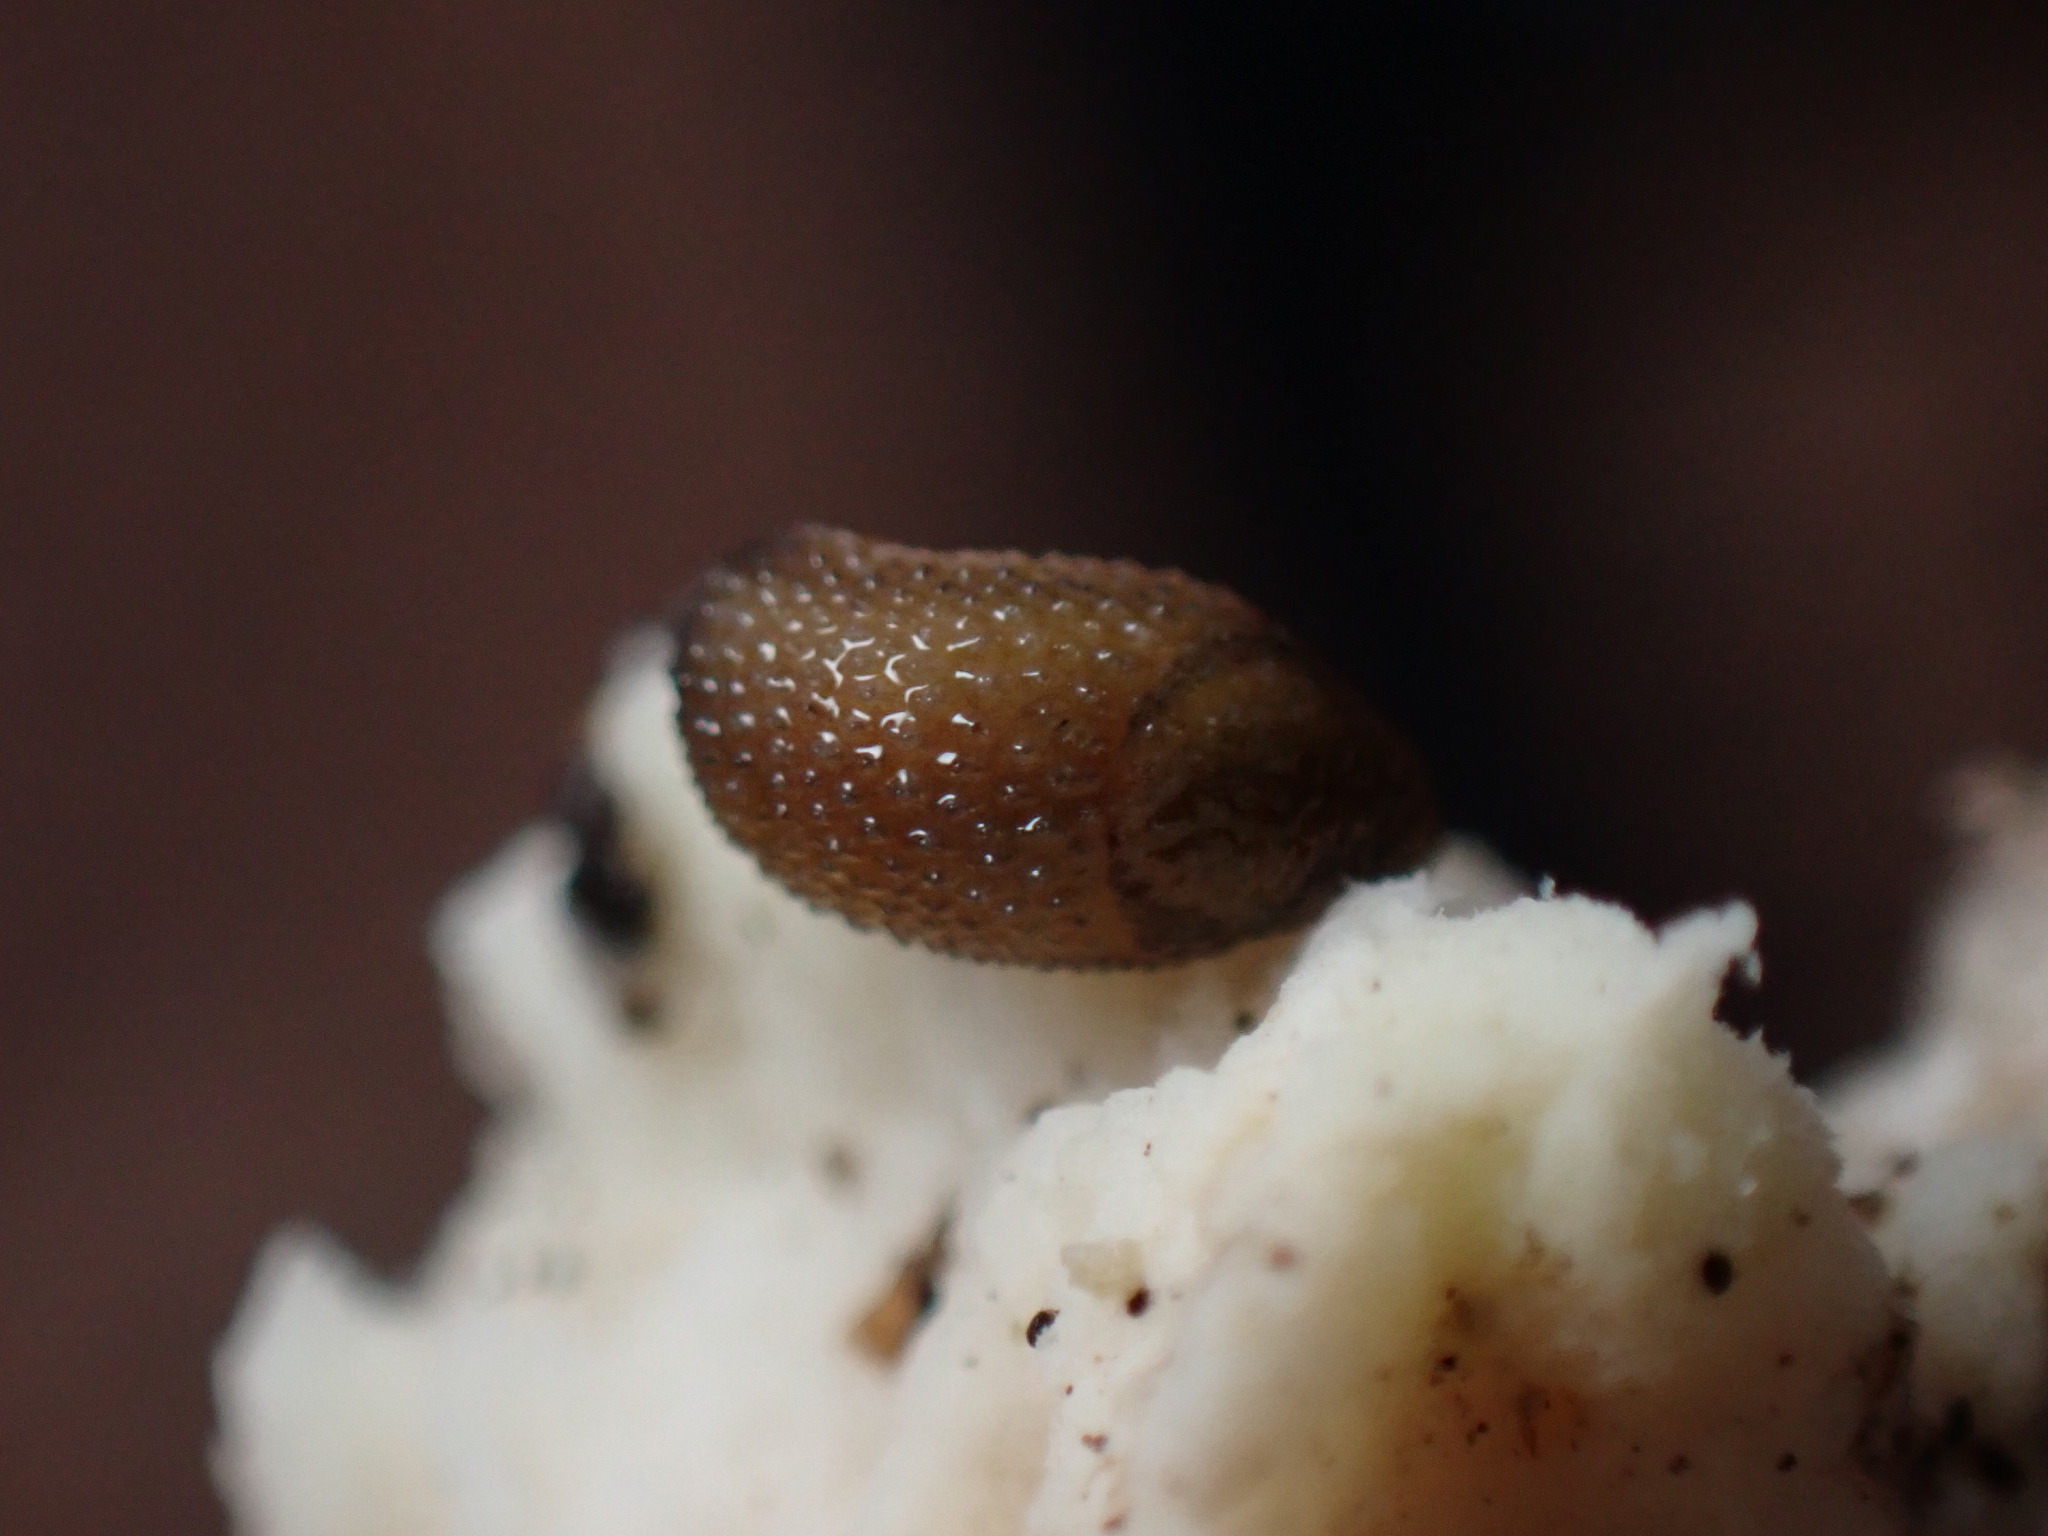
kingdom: Animalia
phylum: Mollusca
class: Gastropoda
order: Stylommatophora
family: Arionidae
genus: Arion
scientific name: Arion intermedius
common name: Hedgehog slug
